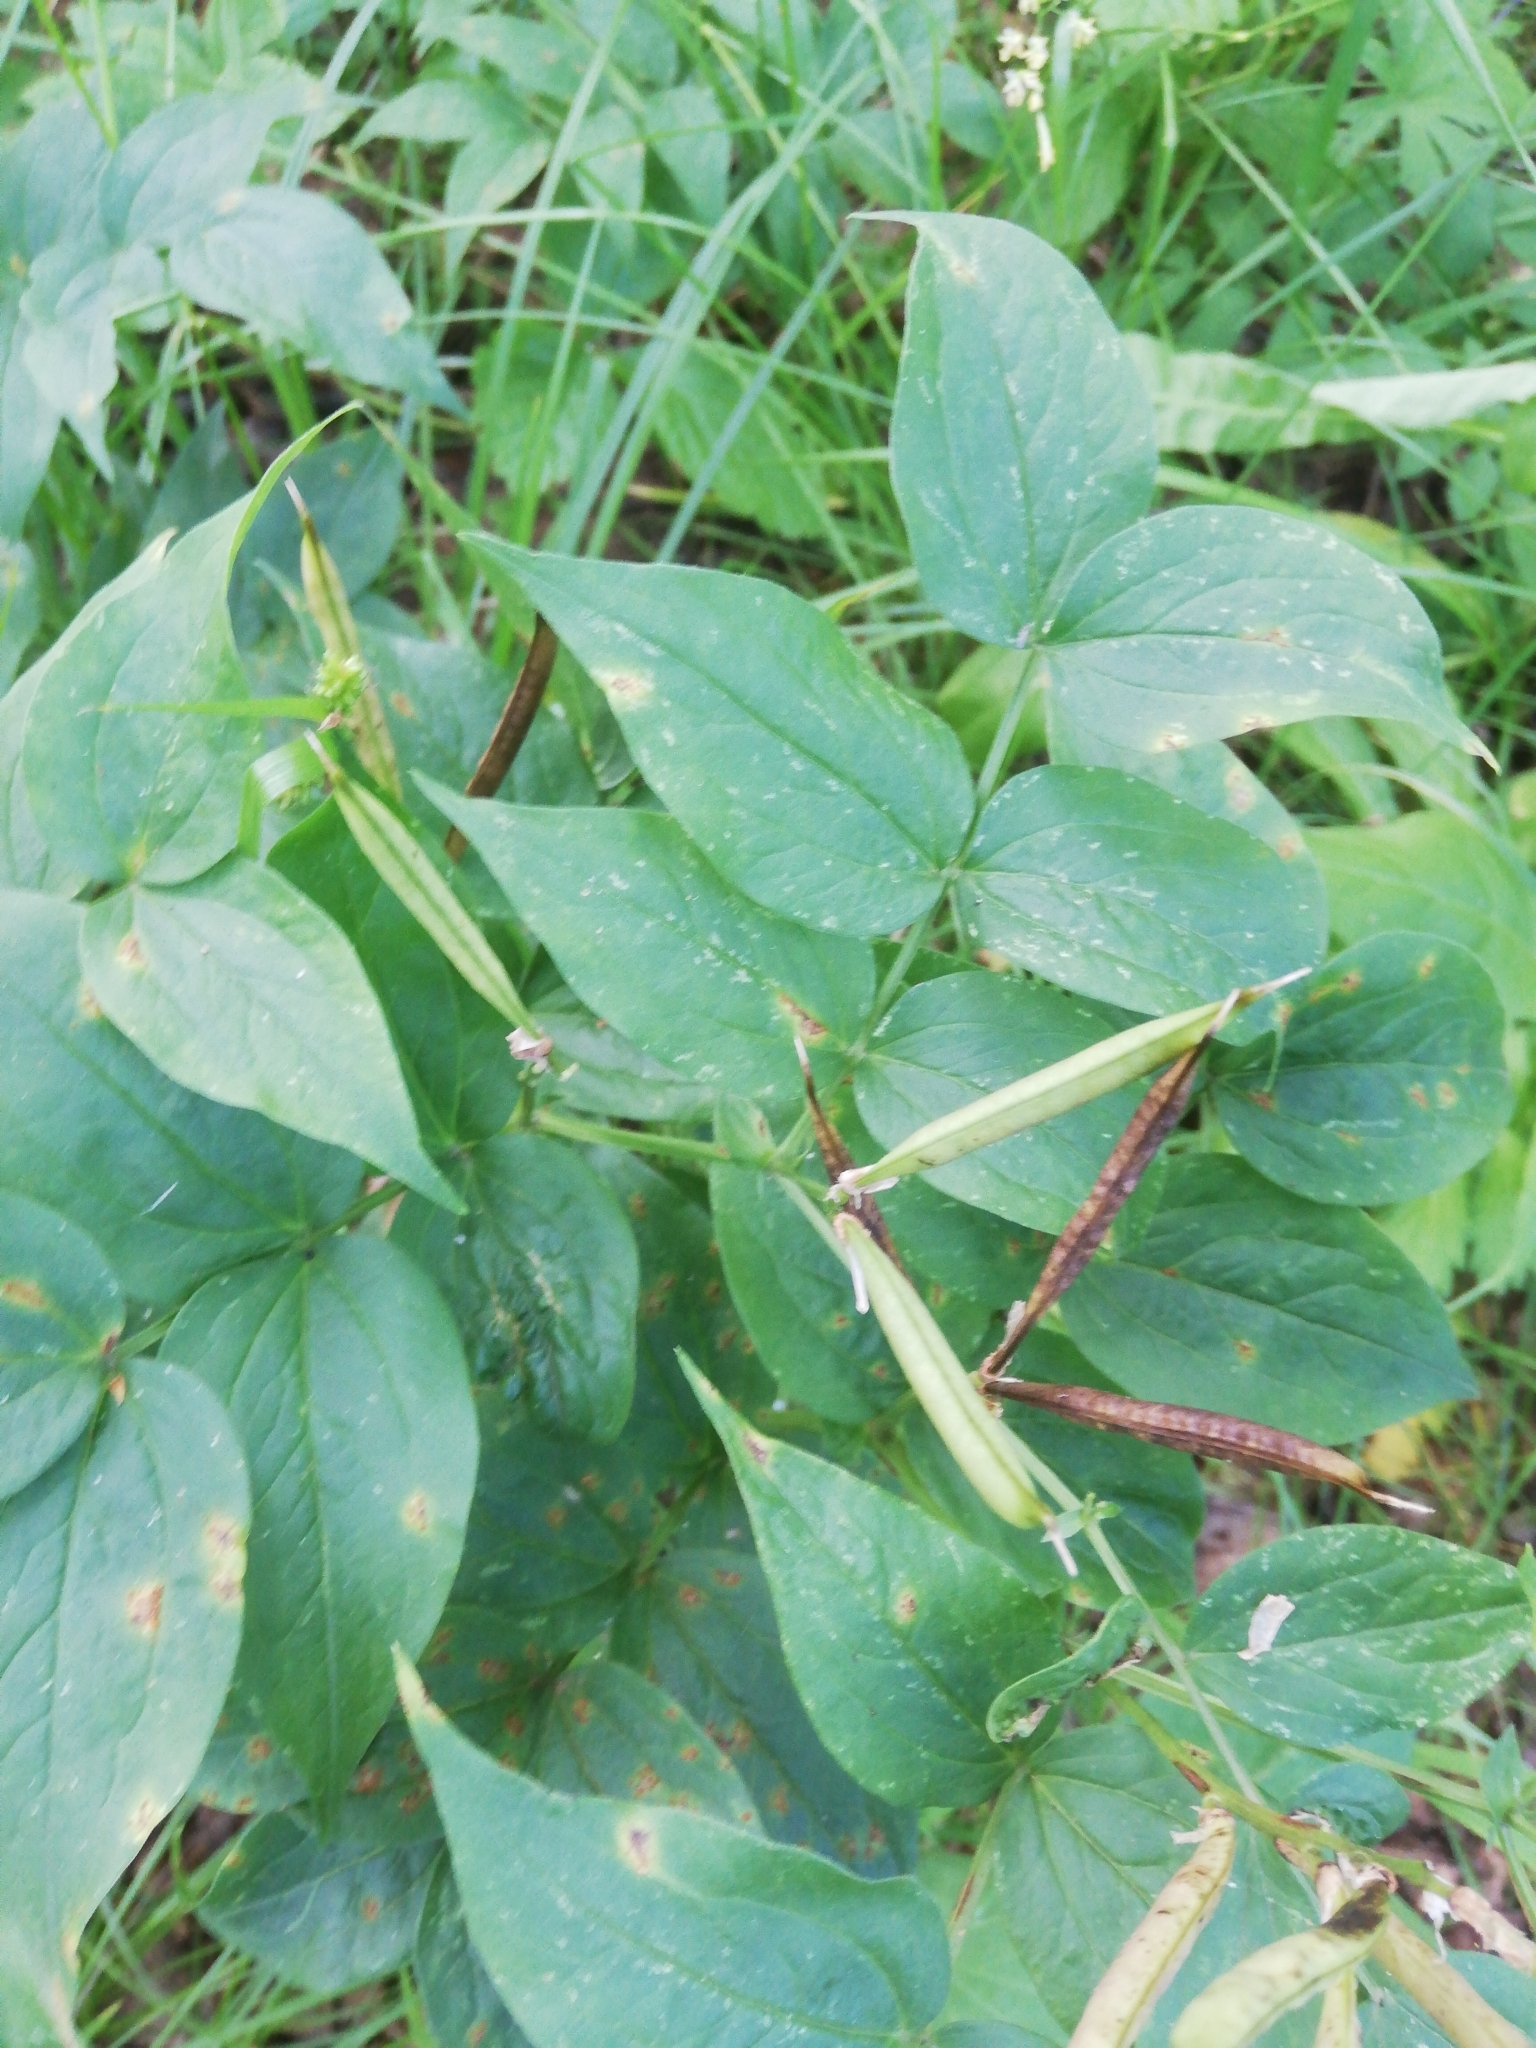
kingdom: Plantae
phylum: Tracheophyta
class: Magnoliopsida
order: Fabales
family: Fabaceae
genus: Lathyrus
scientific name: Lathyrus vernus
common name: Spring pea
